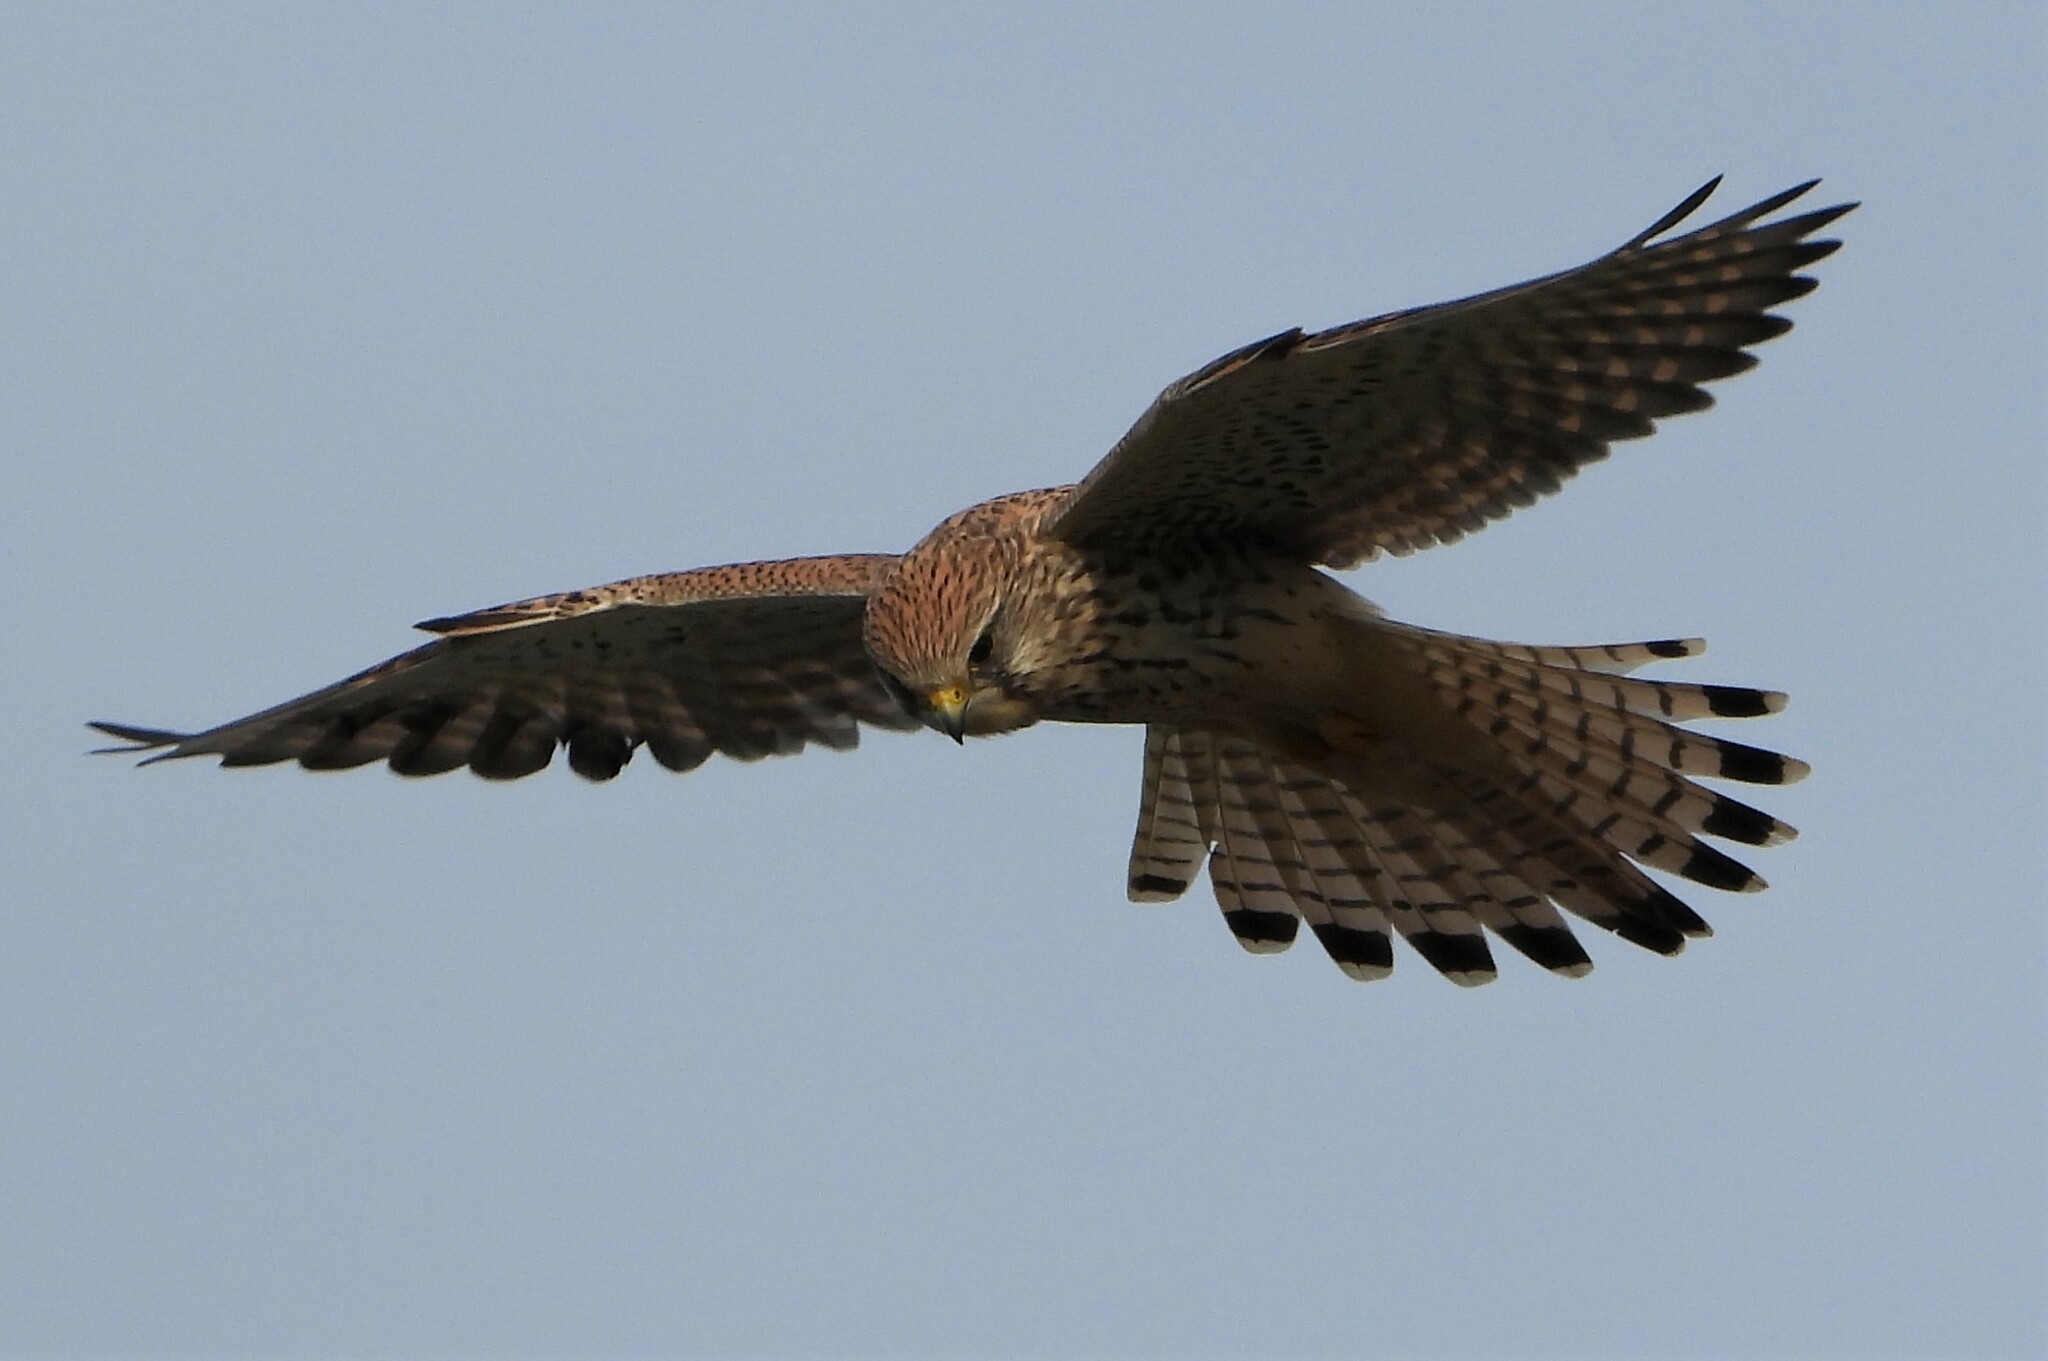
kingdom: Animalia
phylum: Chordata
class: Aves
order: Falconiformes
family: Falconidae
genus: Falco
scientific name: Falco tinnunculus
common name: Common kestrel
